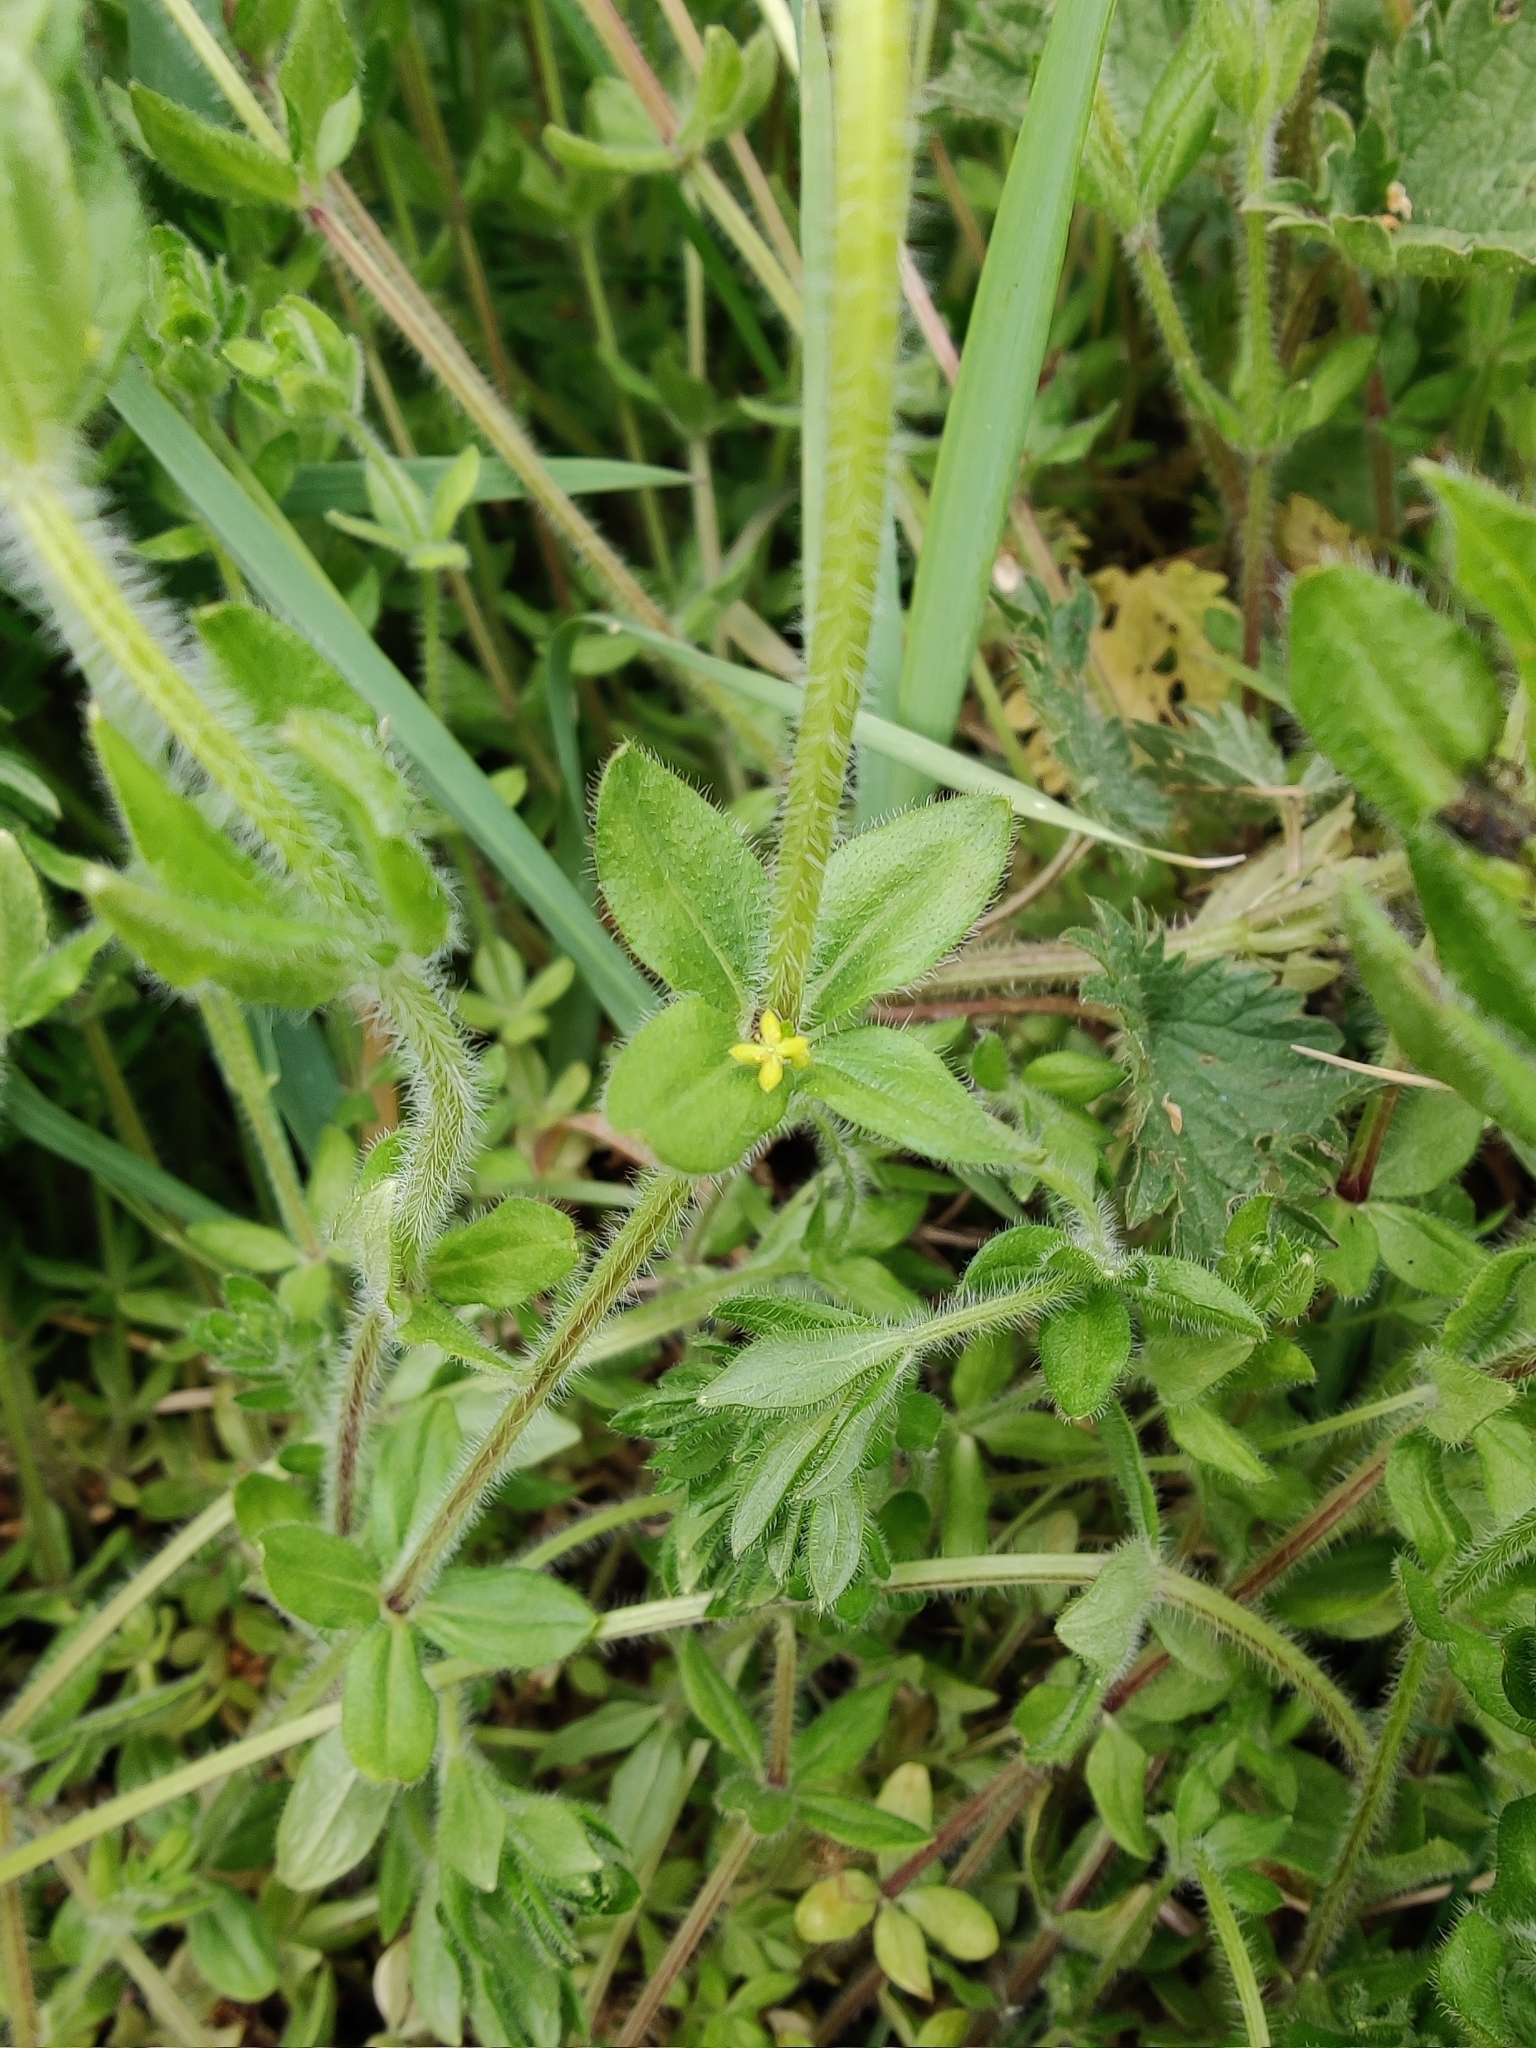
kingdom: Plantae
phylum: Tracheophyta
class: Magnoliopsida
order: Gentianales
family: Rubiaceae
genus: Cruciata
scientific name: Cruciata laevipes
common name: Crosswort
